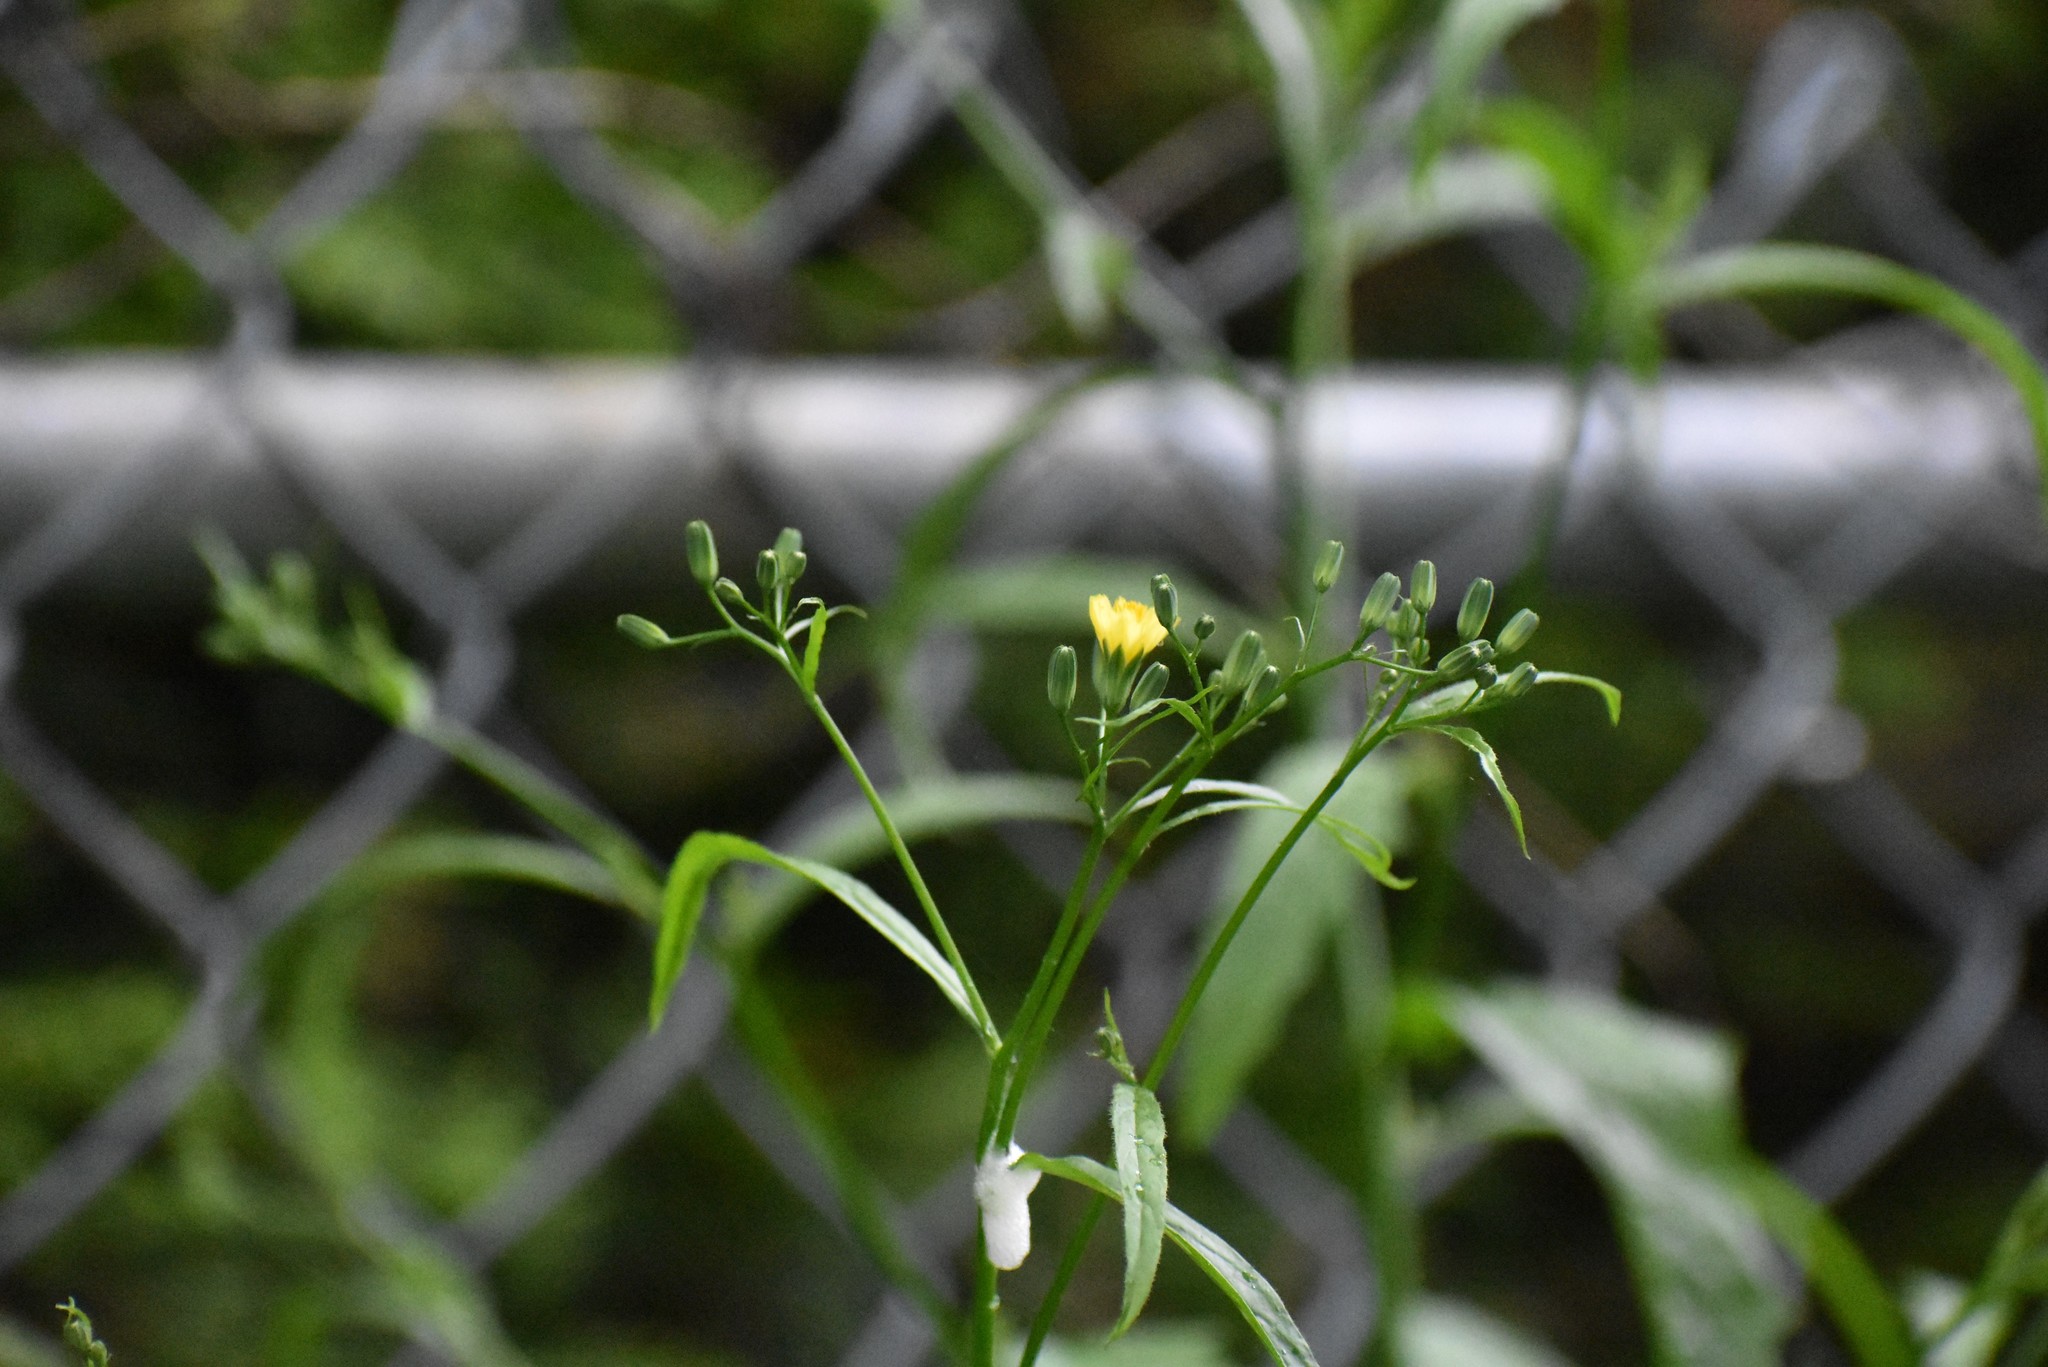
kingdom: Plantae
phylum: Tracheophyta
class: Magnoliopsida
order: Asterales
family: Asteraceae
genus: Lapsana
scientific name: Lapsana communis
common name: Nipplewort
